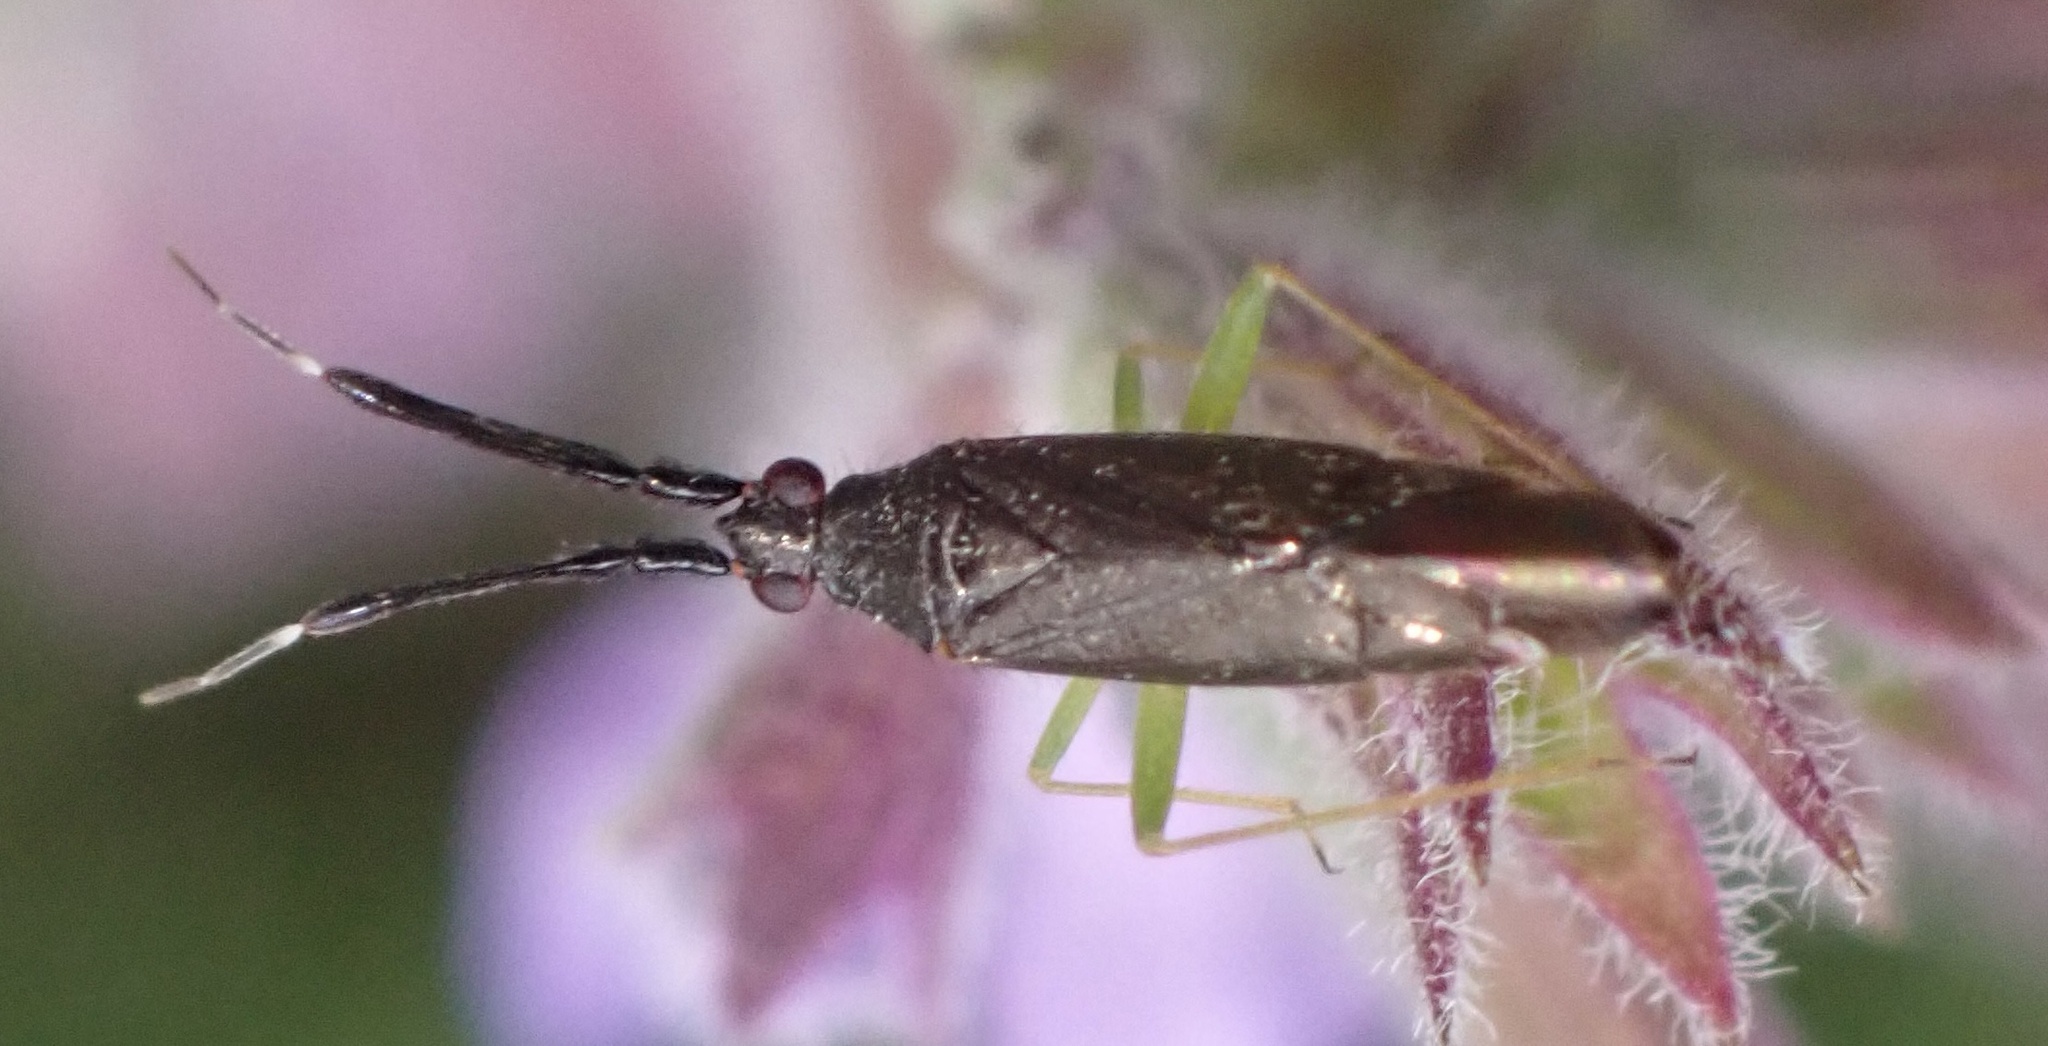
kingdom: Animalia
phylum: Arthropoda
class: Insecta
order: Hemiptera
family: Miridae
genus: Heterotoma
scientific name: Heterotoma planicornis
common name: Plant bug
